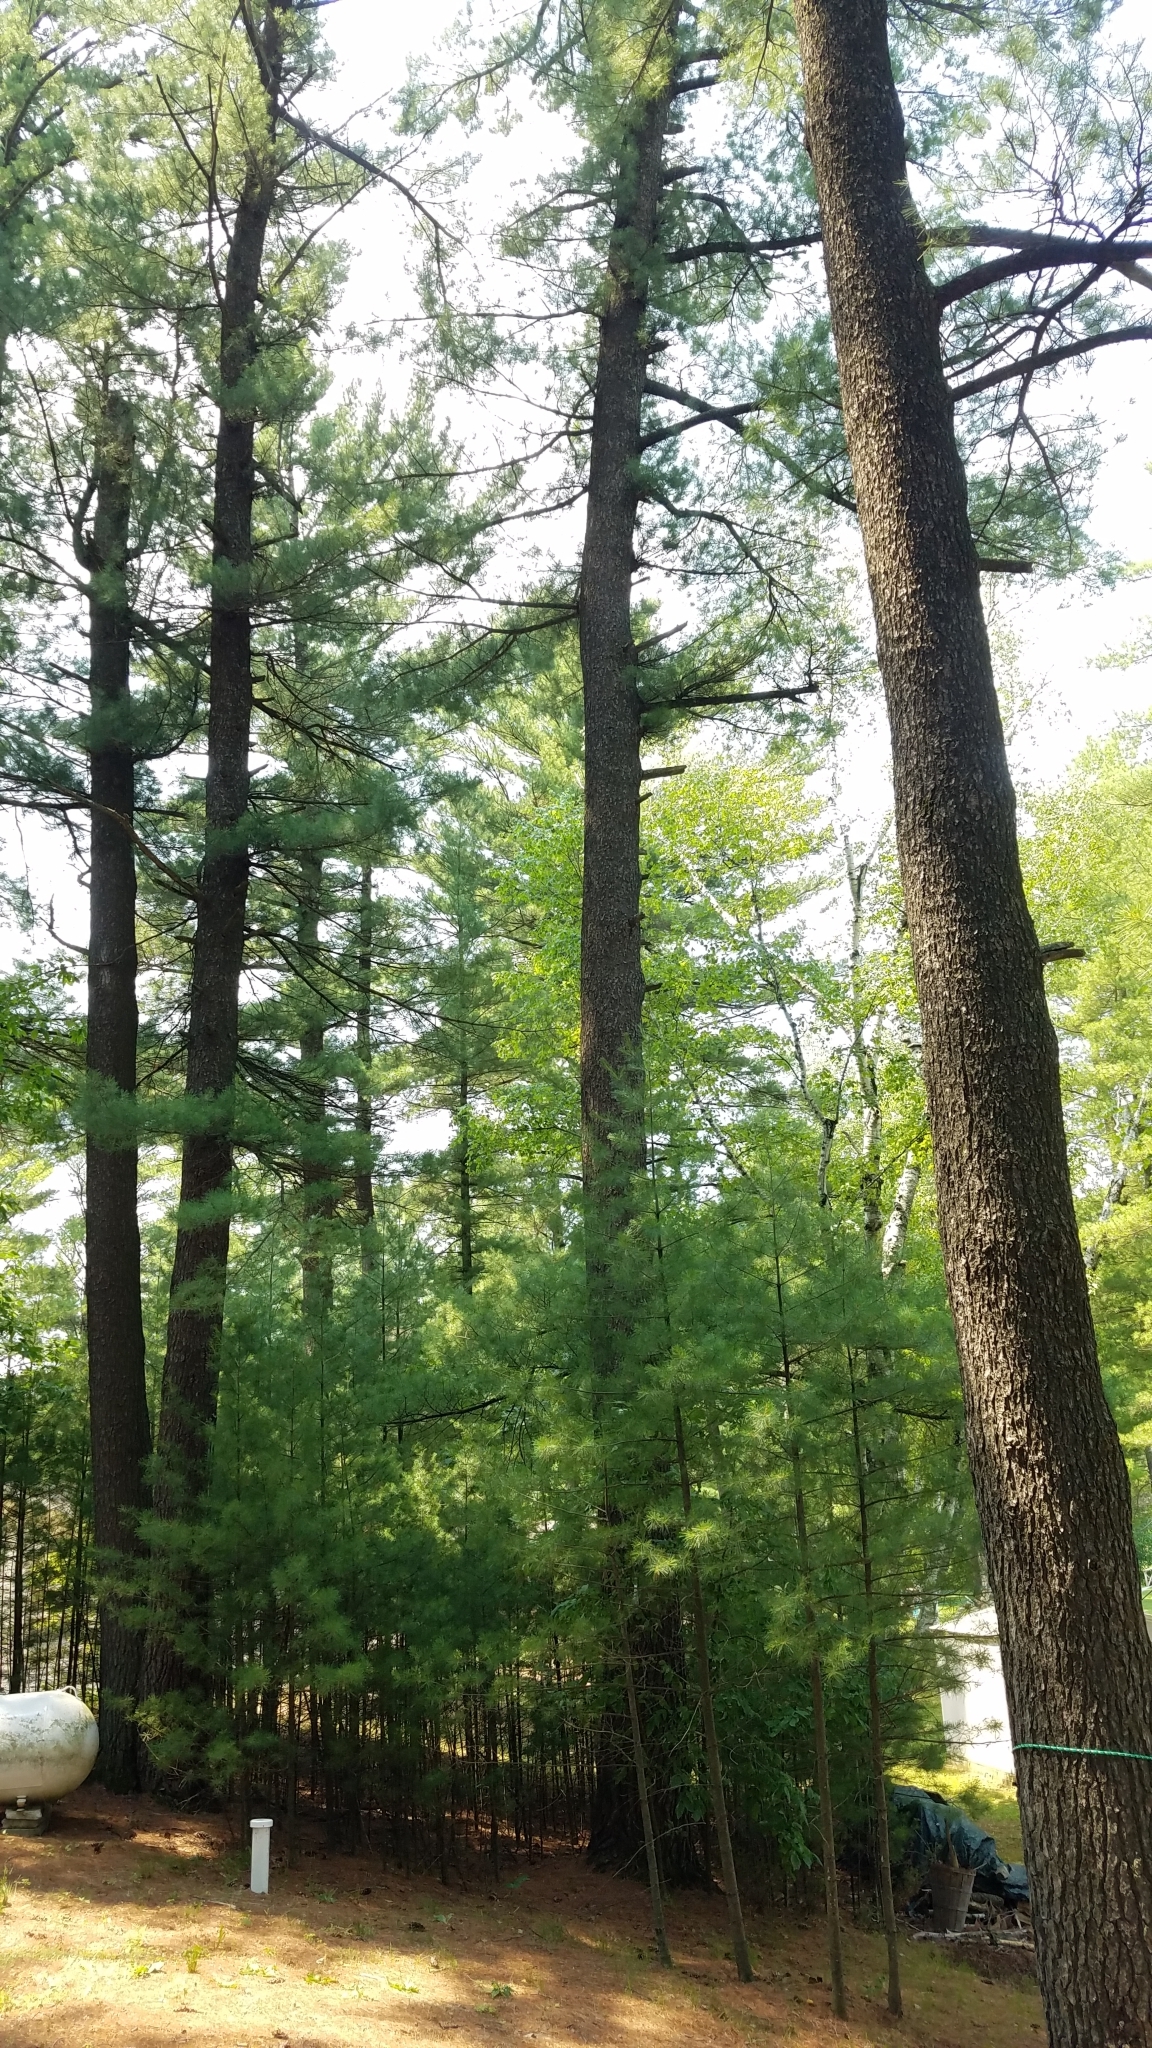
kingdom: Plantae
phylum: Tracheophyta
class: Pinopsida
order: Pinales
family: Pinaceae
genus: Pinus
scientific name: Pinus strobus
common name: Weymouth pine
